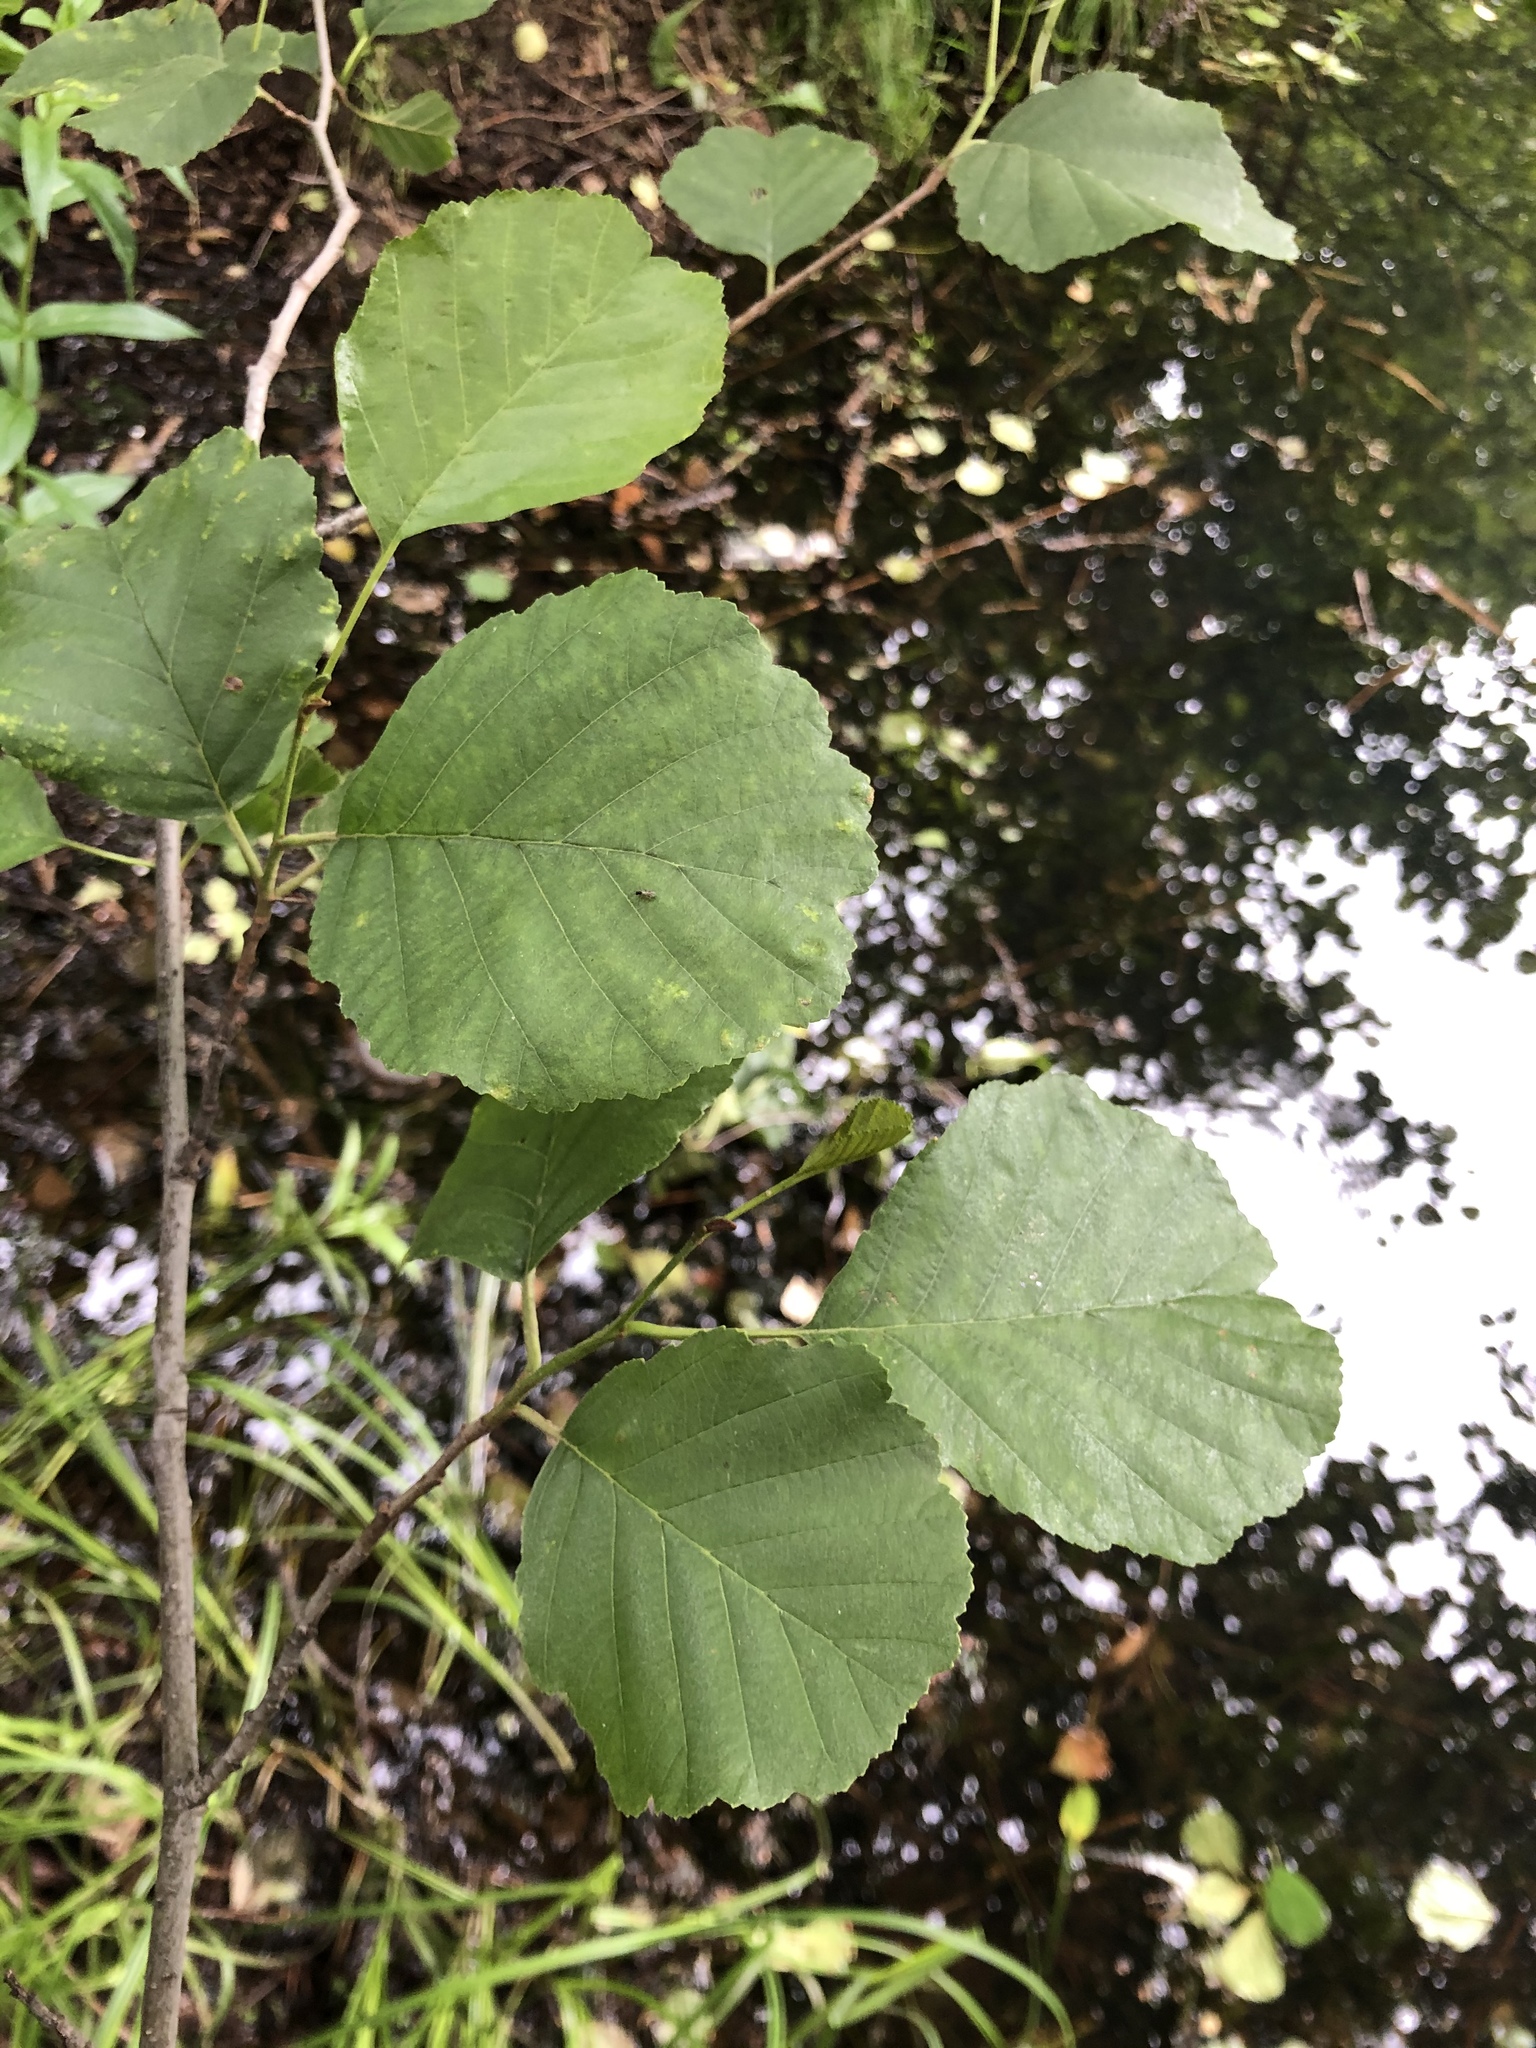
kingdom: Plantae
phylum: Tracheophyta
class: Magnoliopsida
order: Fagales
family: Betulaceae
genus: Alnus
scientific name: Alnus glutinosa
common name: Black alder
